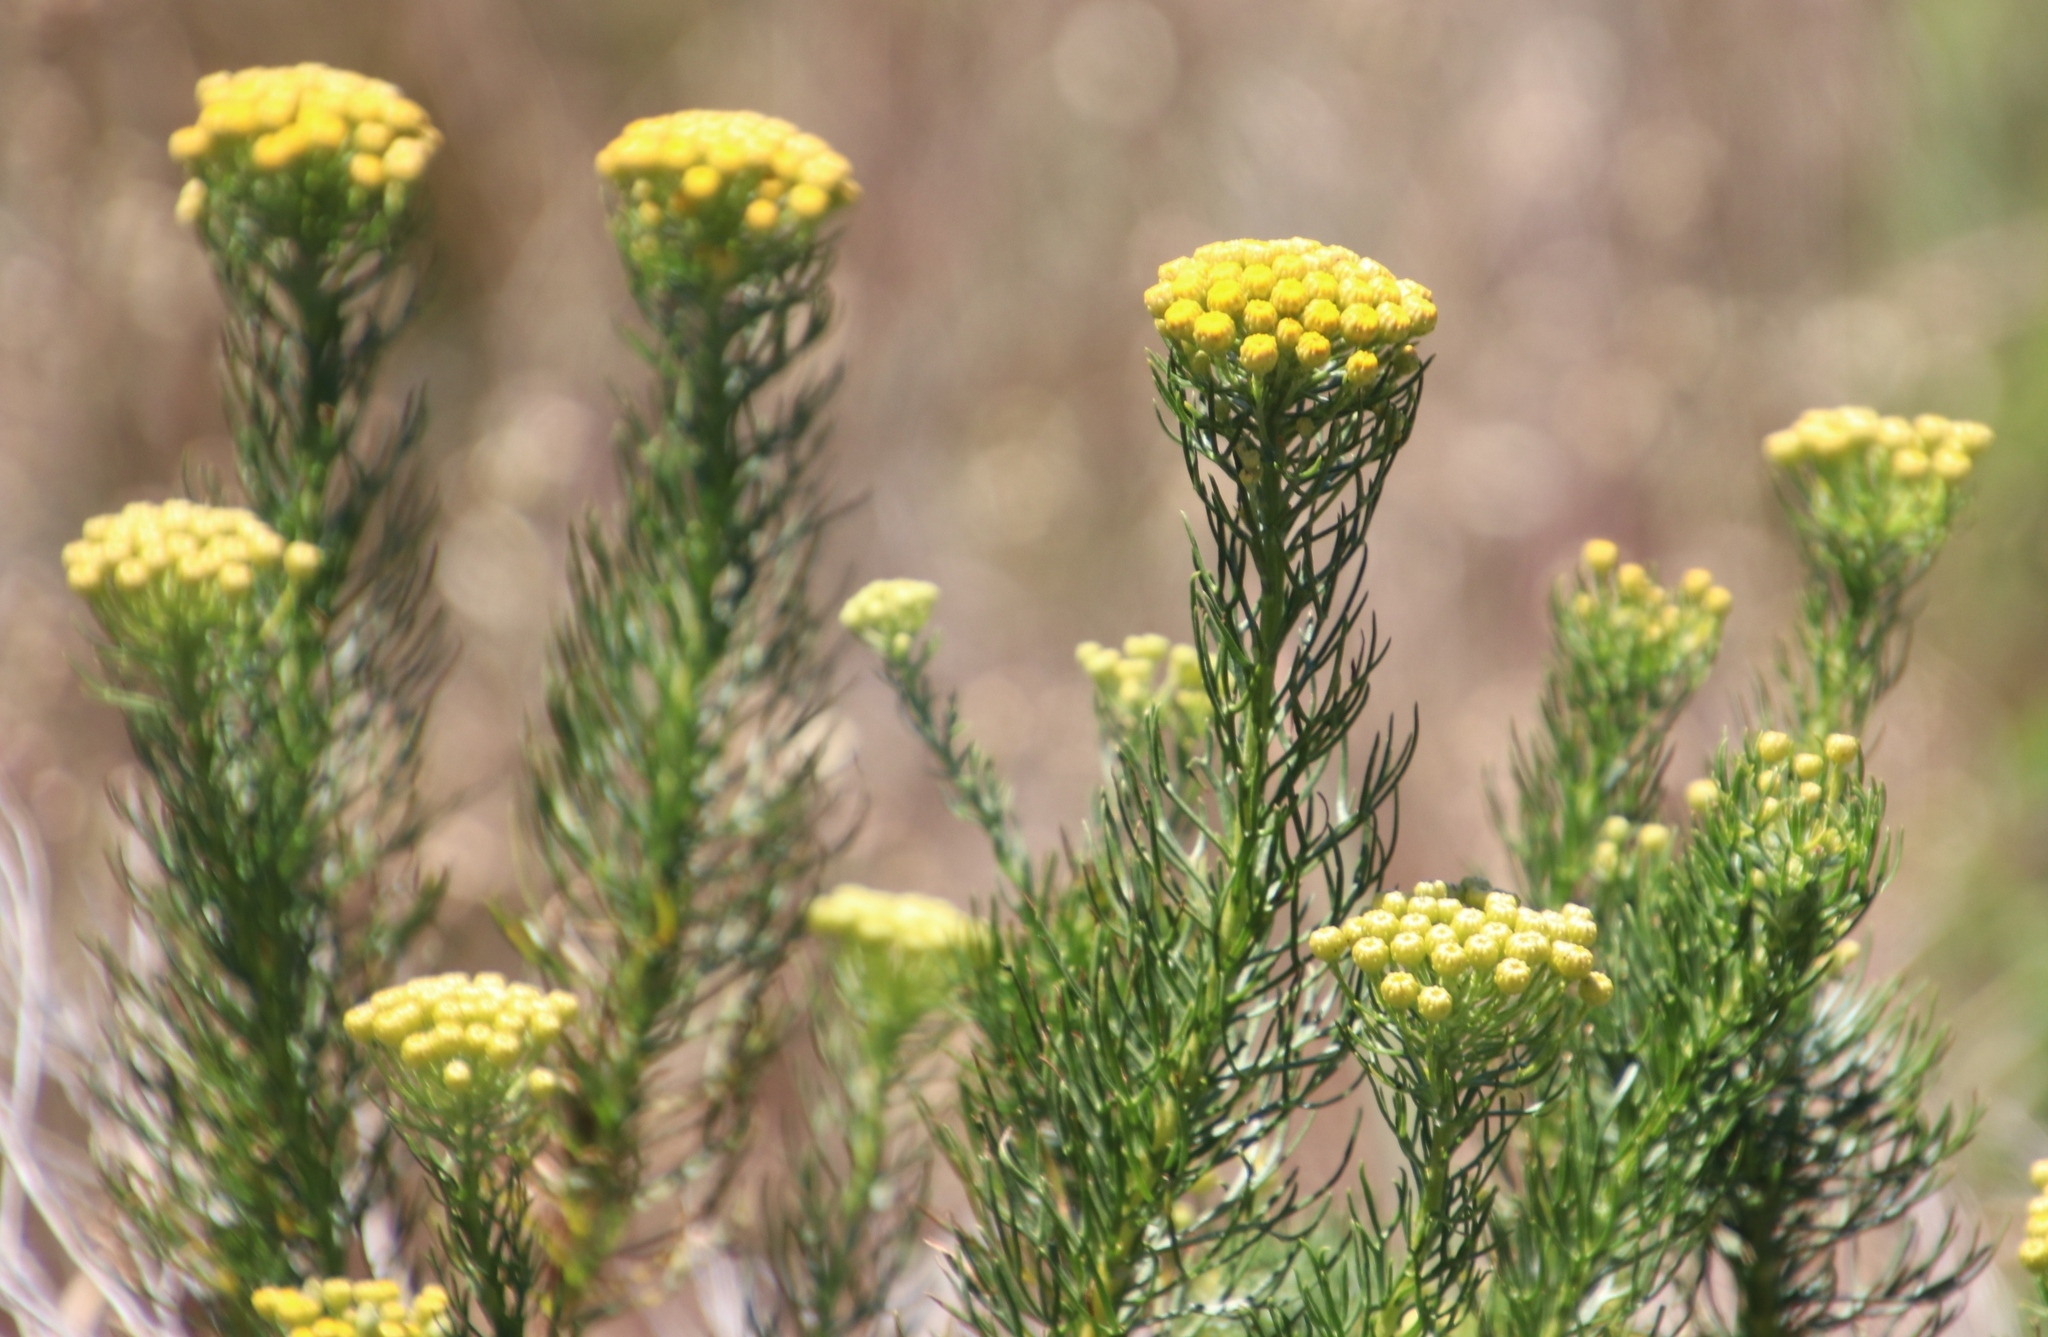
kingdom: Plantae
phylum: Tracheophyta
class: Magnoliopsida
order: Asterales
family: Asteraceae
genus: Athanasia
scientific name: Athanasia crithmifolia
